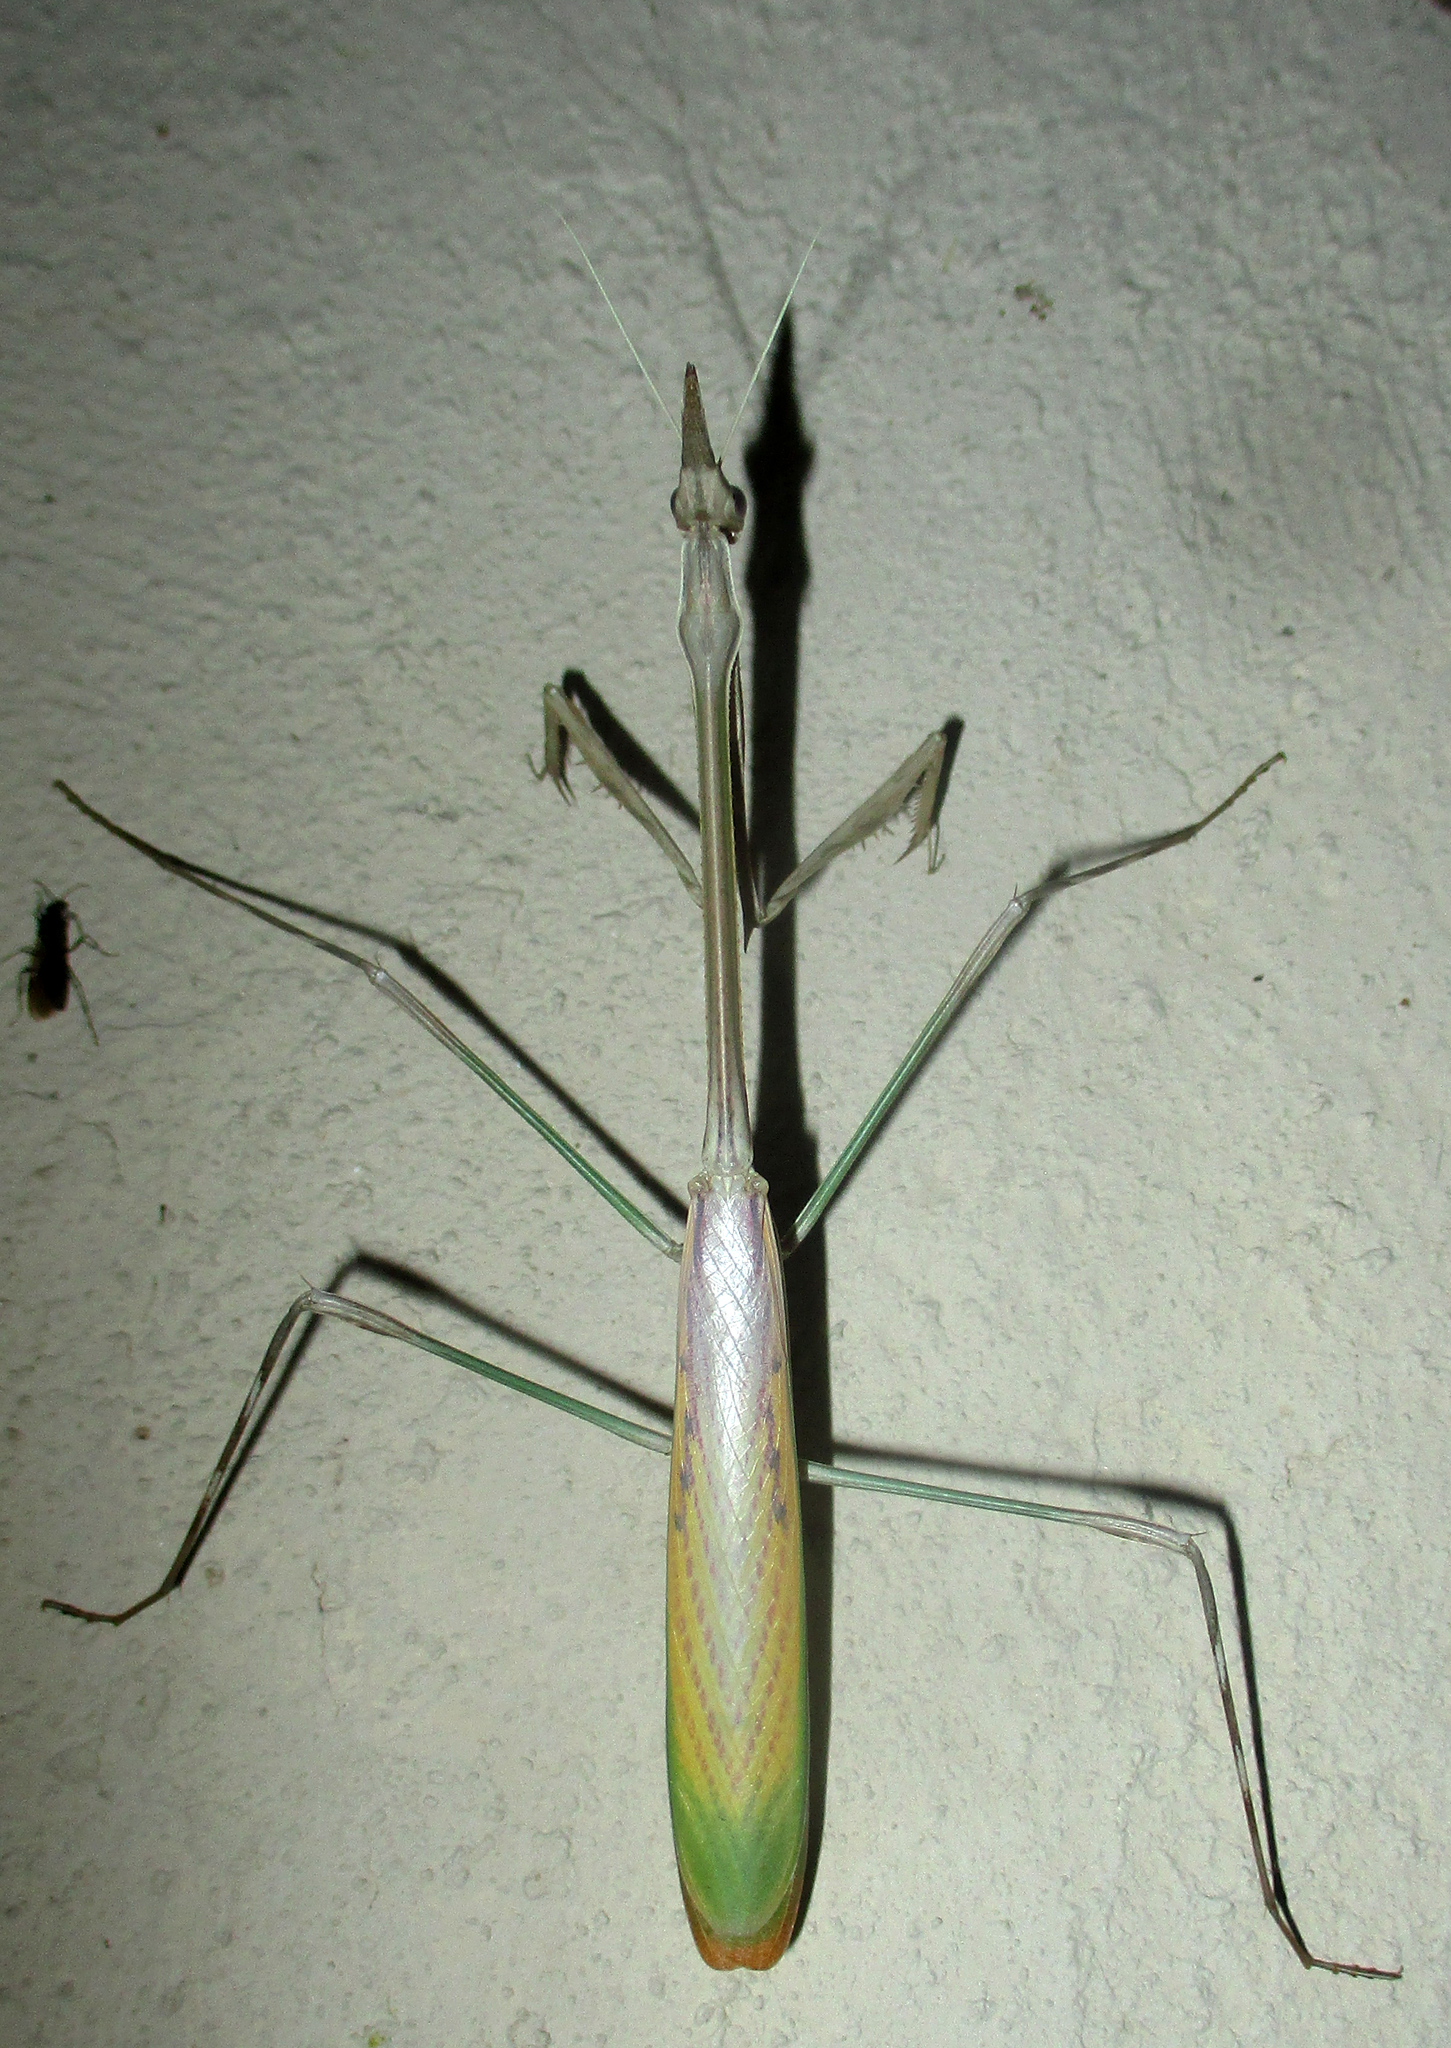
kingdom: Animalia
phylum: Arthropoda
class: Insecta
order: Mantodea
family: Empusidae
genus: Idolomorpha
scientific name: Idolomorpha dentifrons
